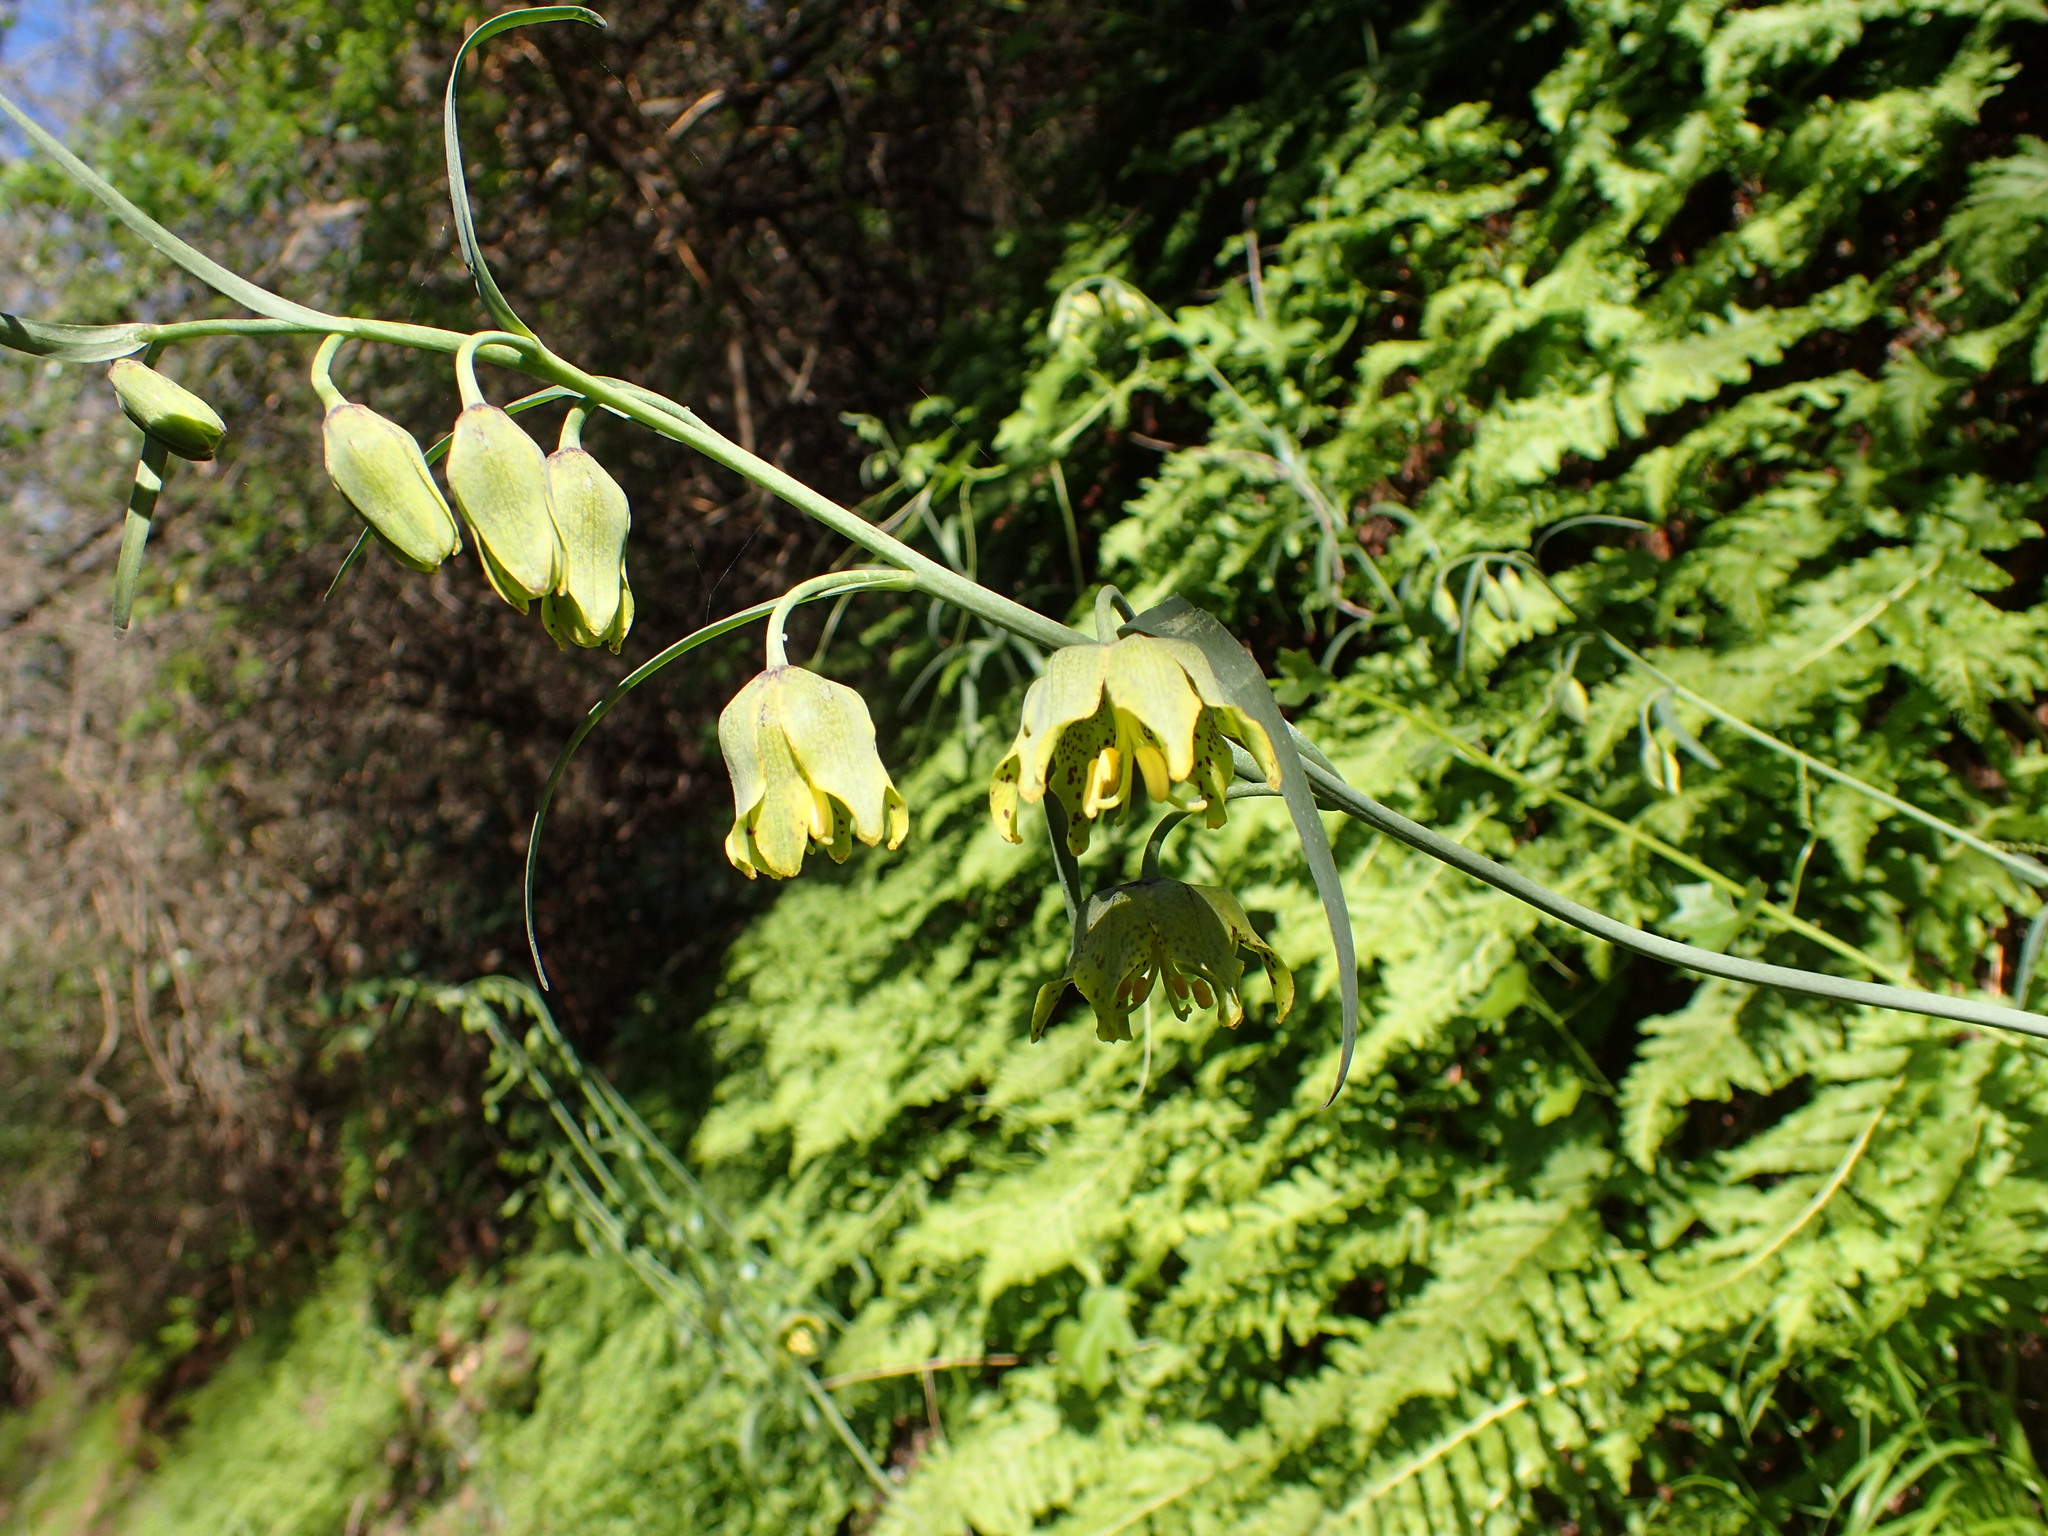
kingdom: Plantae
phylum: Tracheophyta
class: Liliopsida
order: Liliales
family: Liliaceae
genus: Fritillaria
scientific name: Fritillaria ojaiensis
